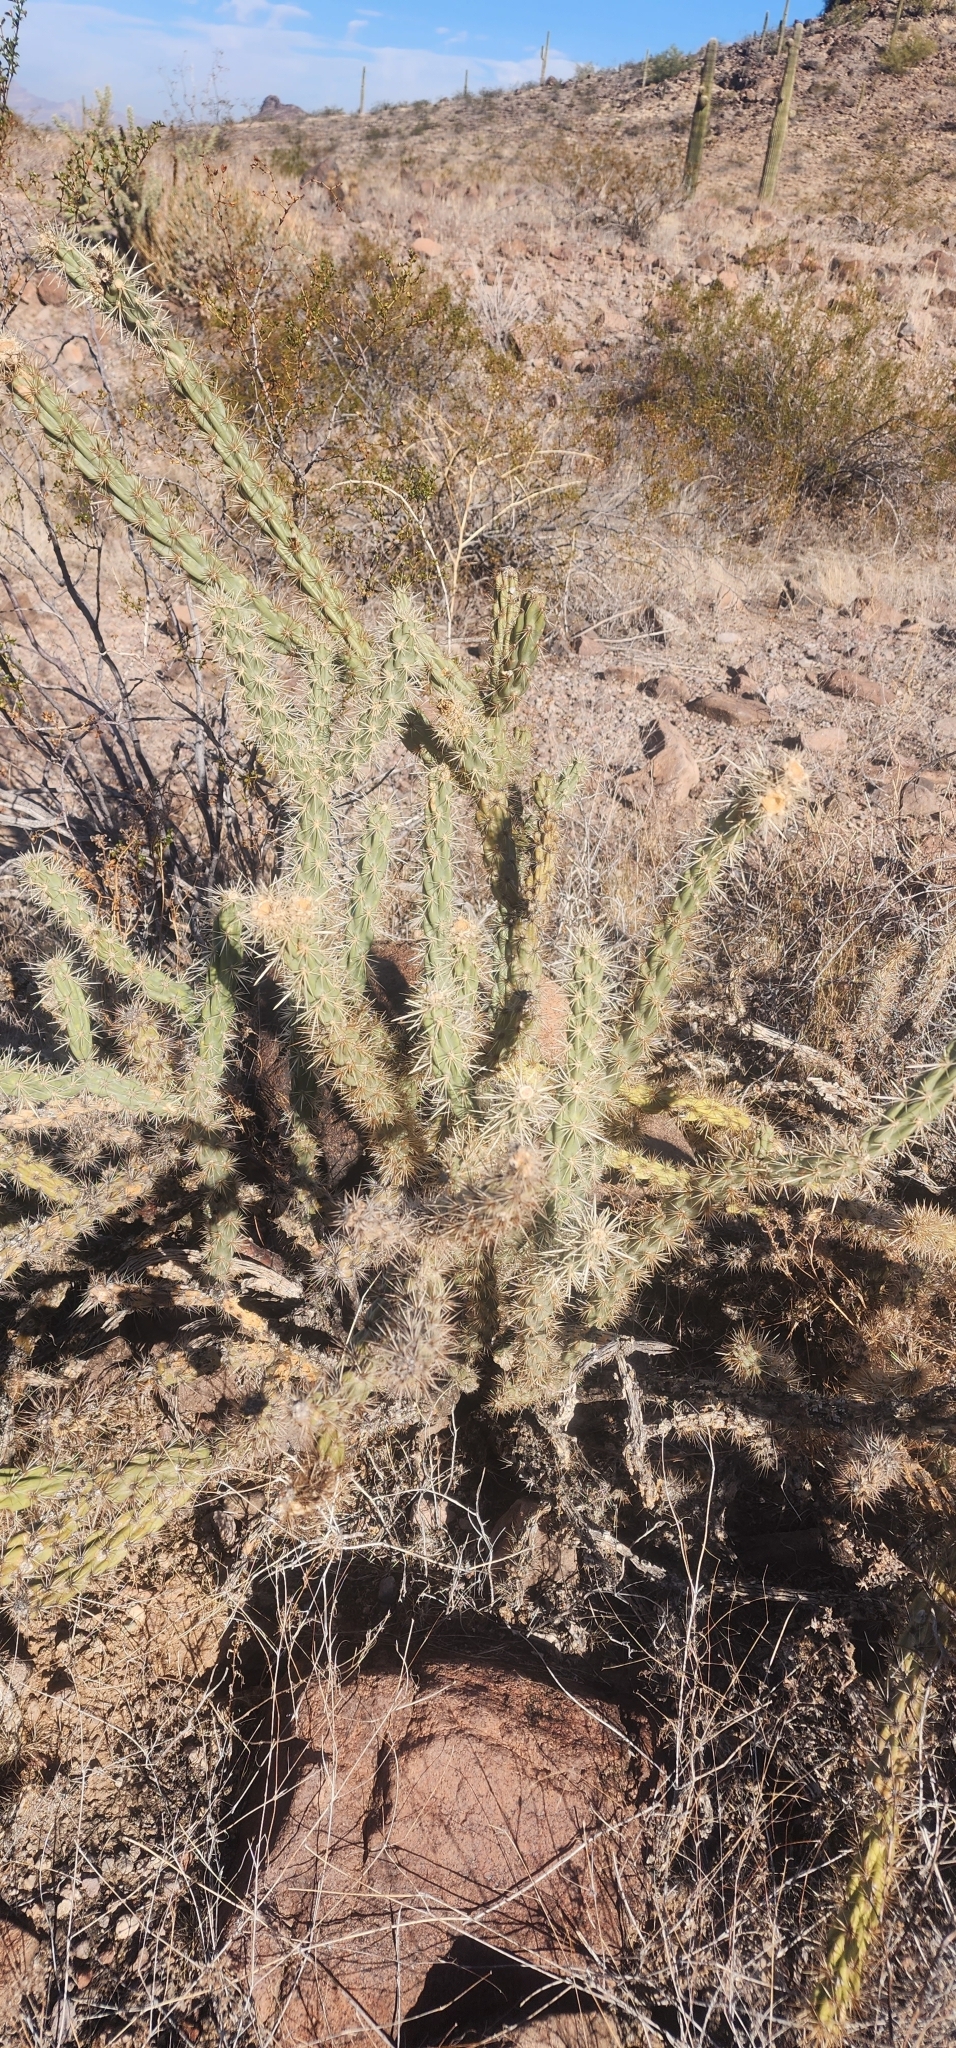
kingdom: Plantae
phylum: Tracheophyta
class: Magnoliopsida
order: Caryophyllales
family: Cactaceae
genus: Cylindropuntia
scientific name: Cylindropuntia acanthocarpa
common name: Buckhorn cholla
